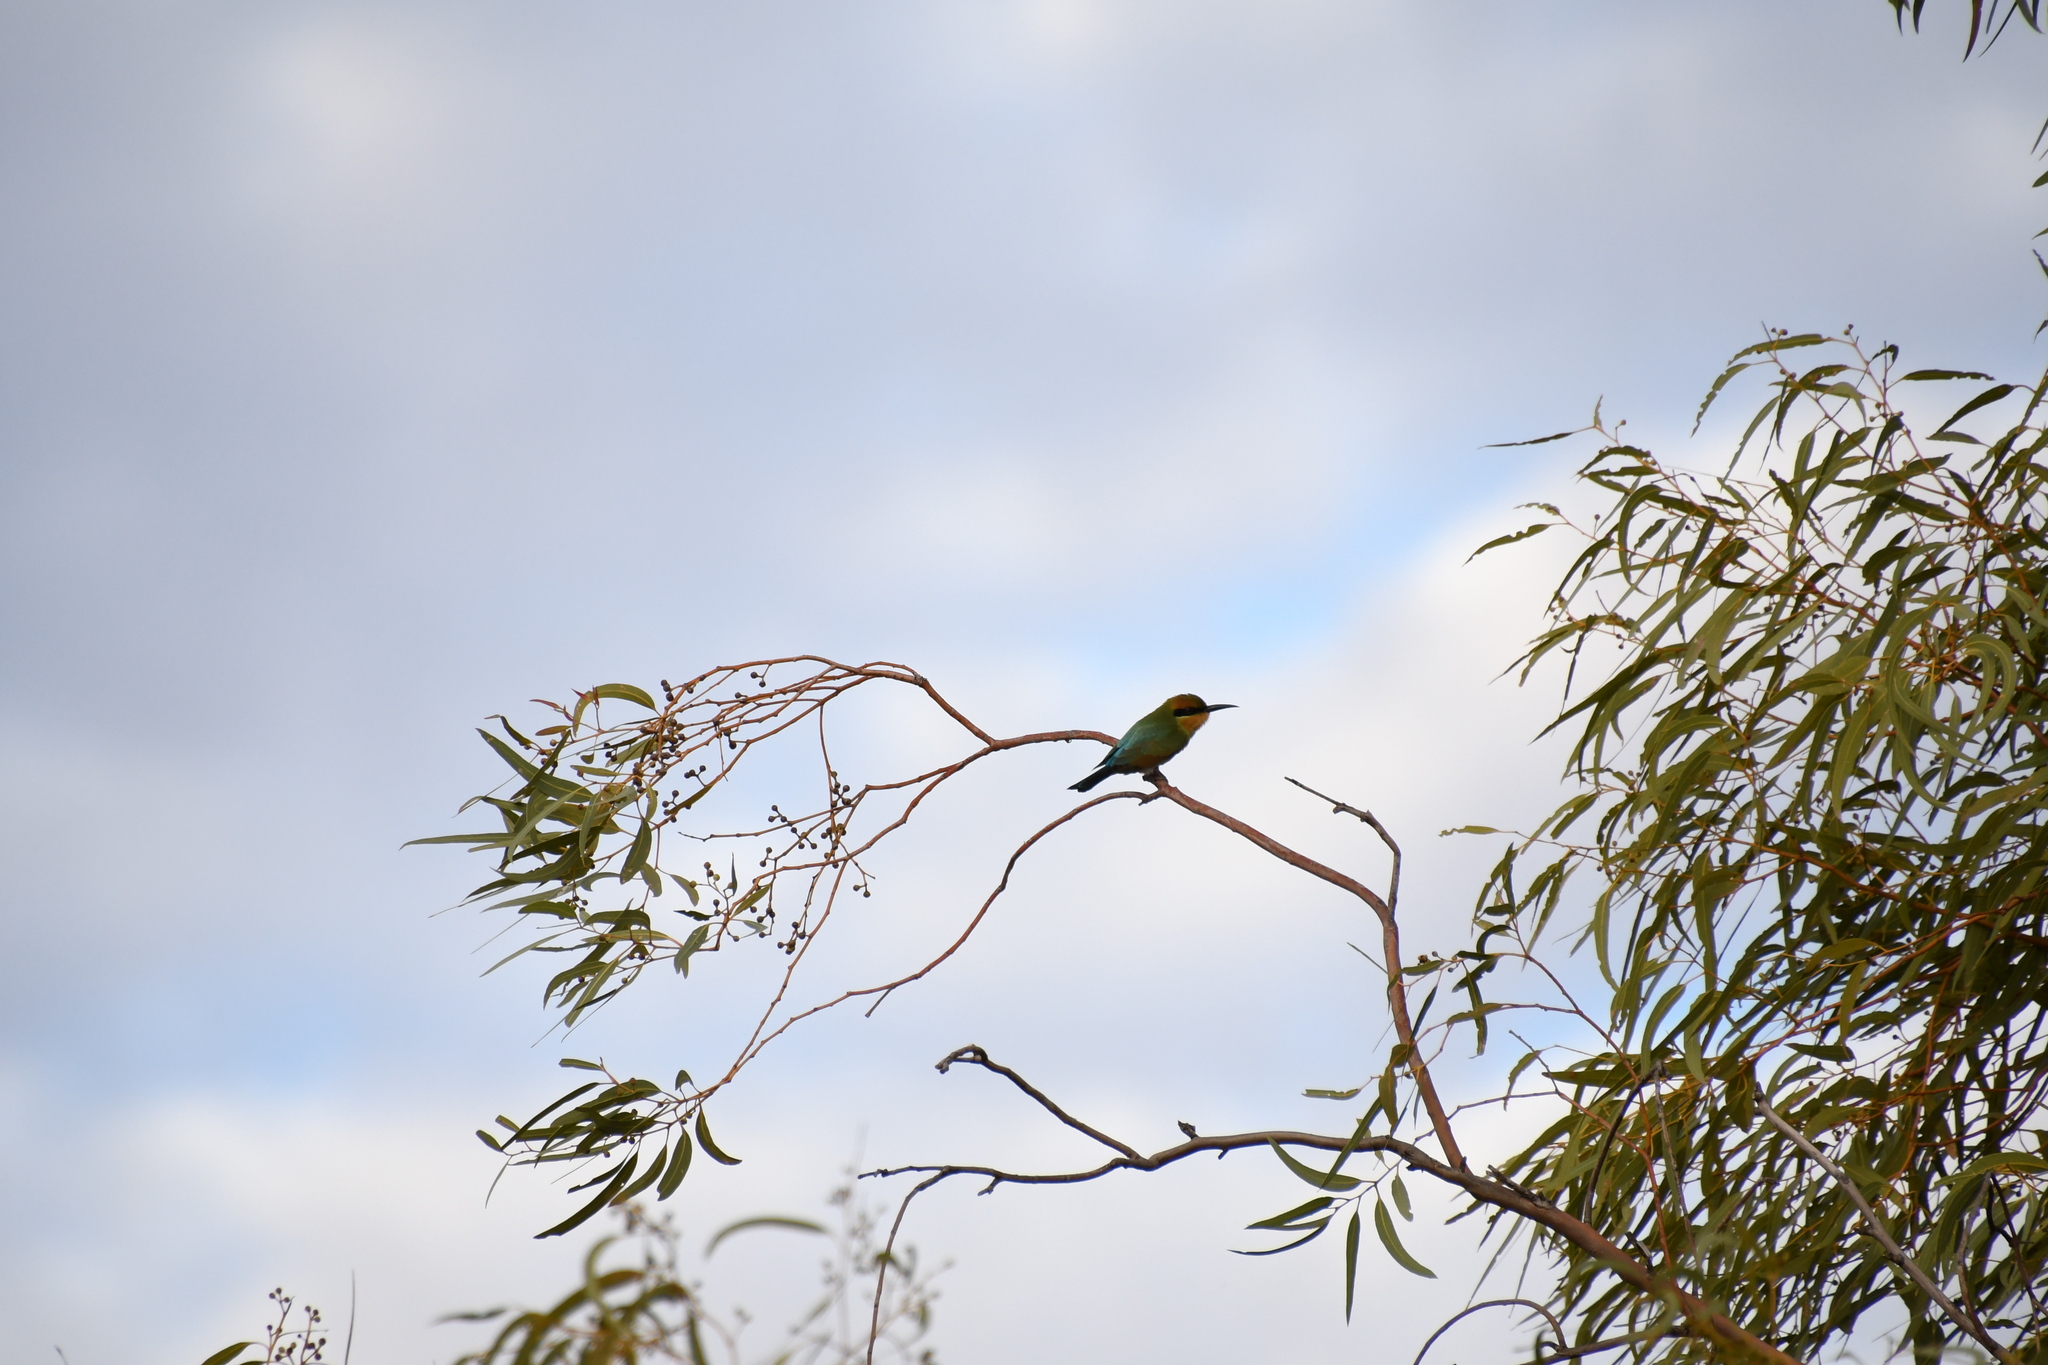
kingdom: Animalia
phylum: Chordata
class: Aves
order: Coraciiformes
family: Meropidae
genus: Merops
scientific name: Merops ornatus
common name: Rainbow bee-eater
